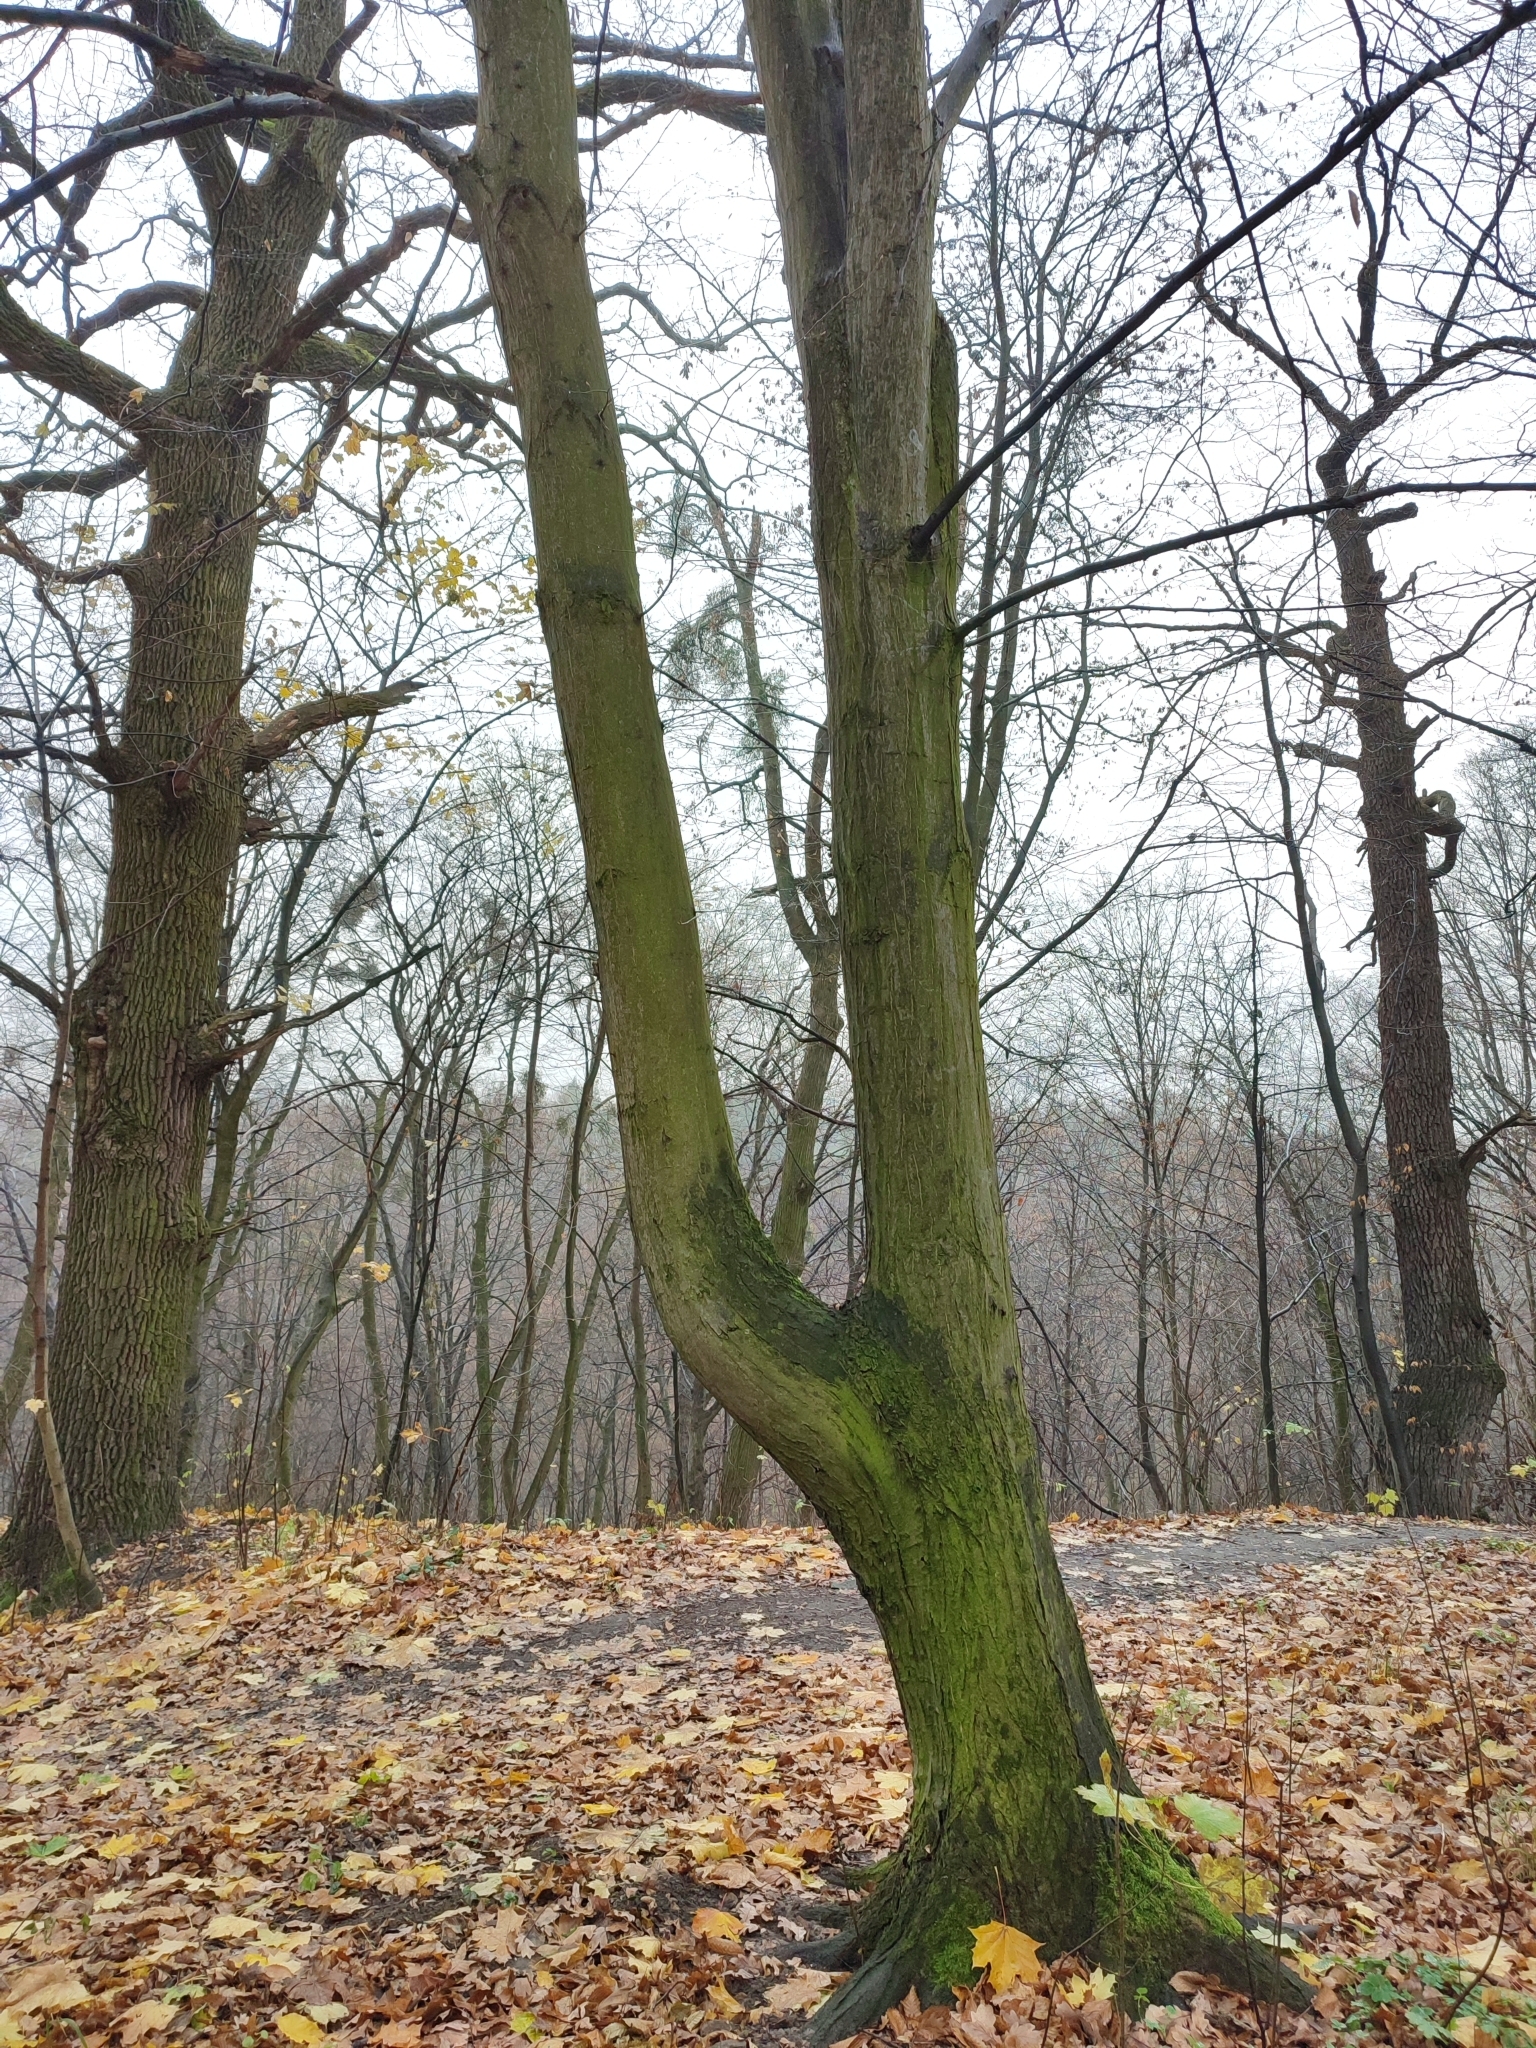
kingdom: Plantae
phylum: Tracheophyta
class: Magnoliopsida
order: Fagales
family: Betulaceae
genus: Carpinus
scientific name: Carpinus betulus
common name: Hornbeam
